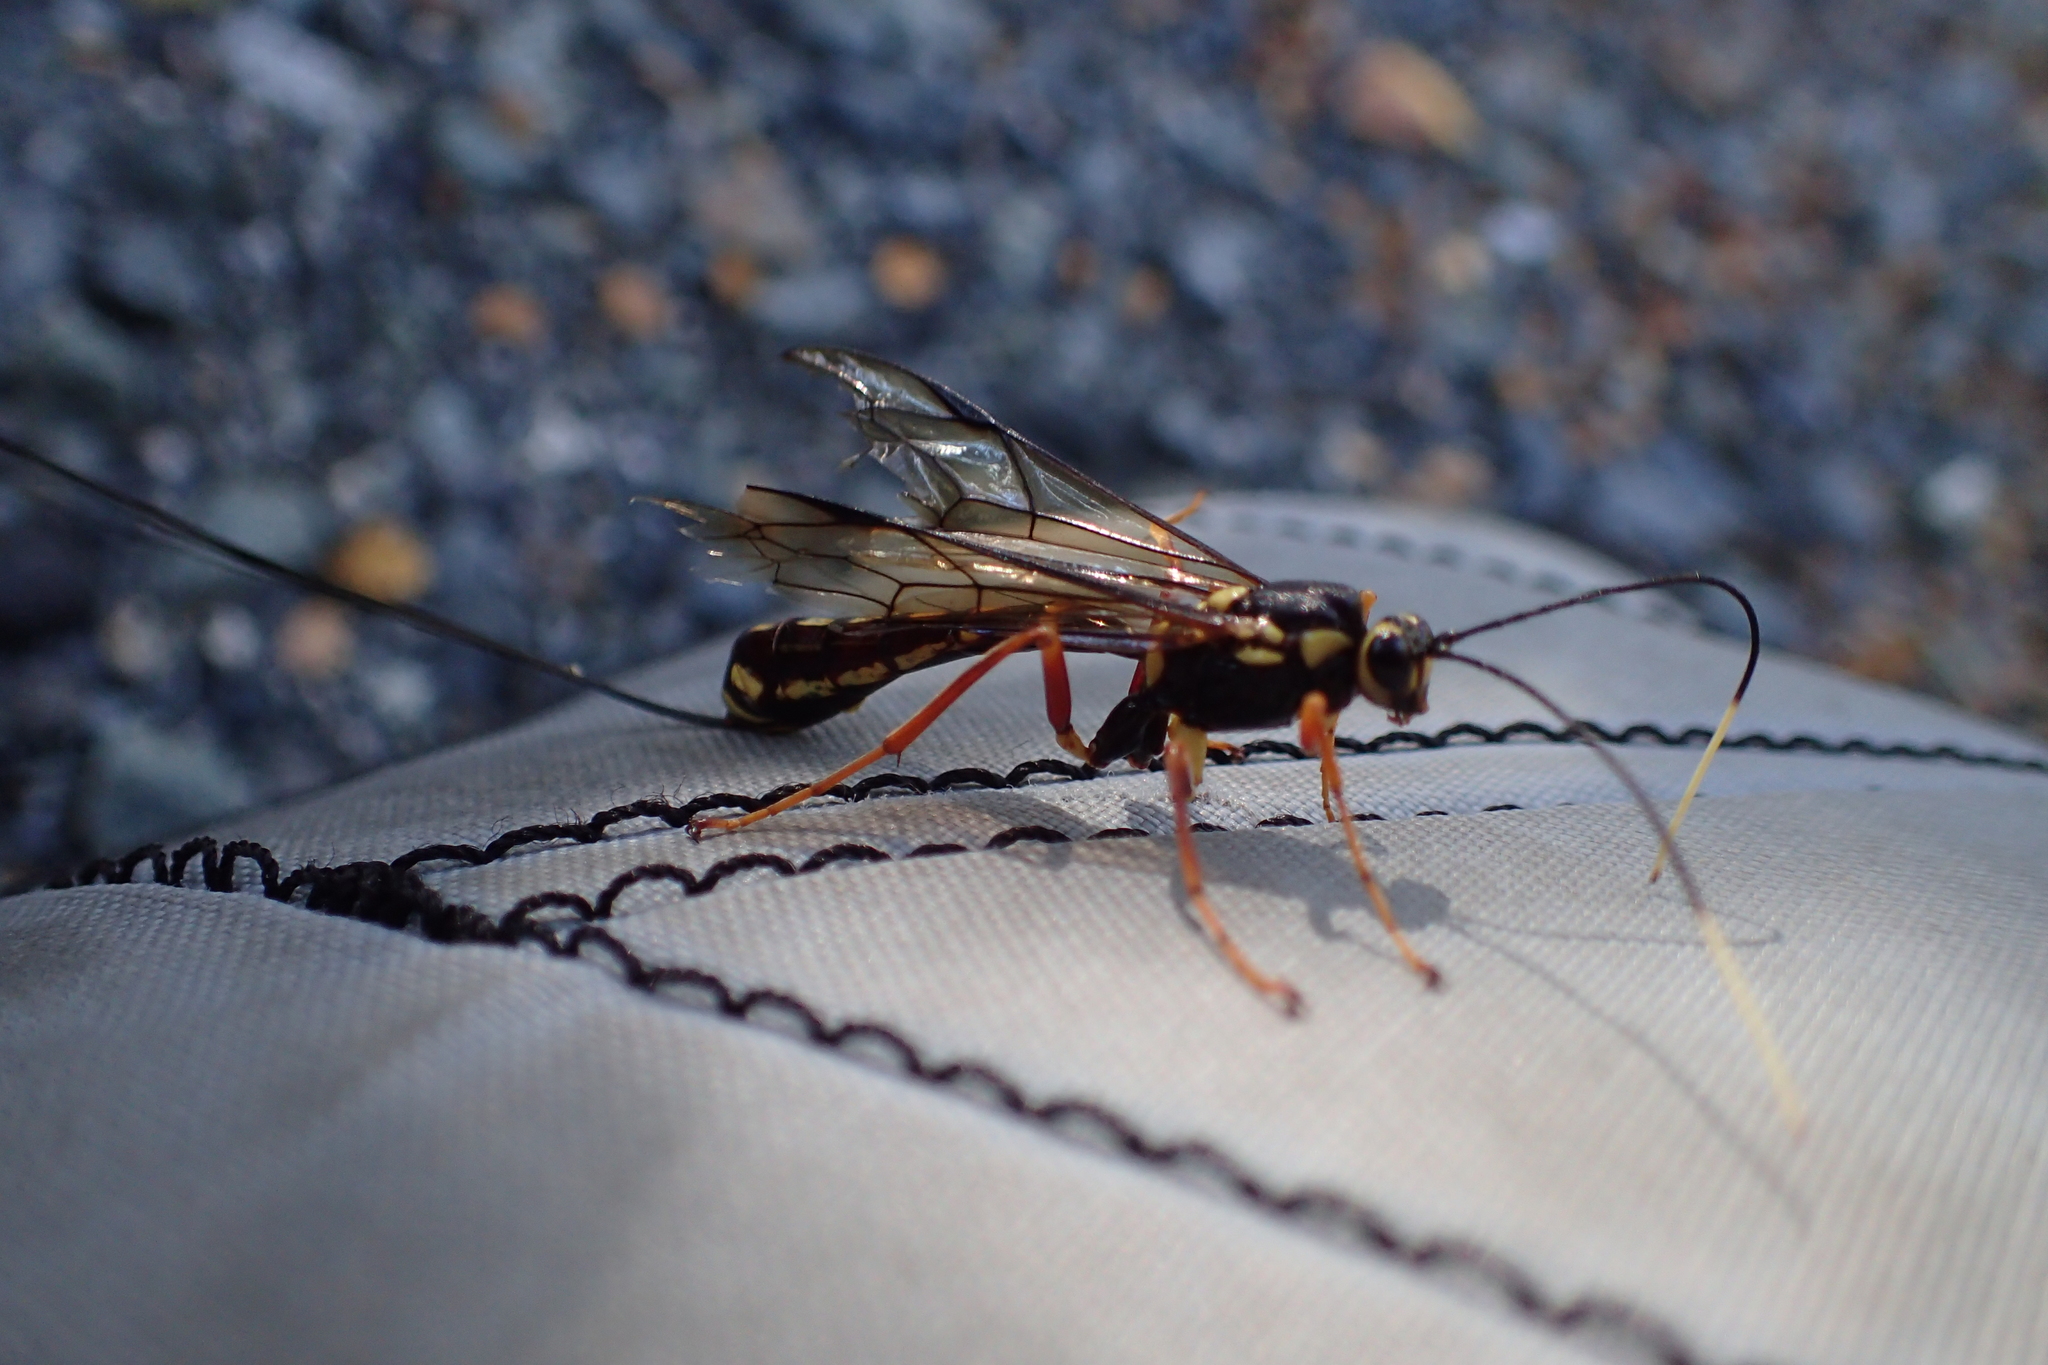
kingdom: Animalia
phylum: Arthropoda
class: Insecta
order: Hymenoptera
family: Ichneumonidae
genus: Certonotus
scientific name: Certonotus fractinervis
